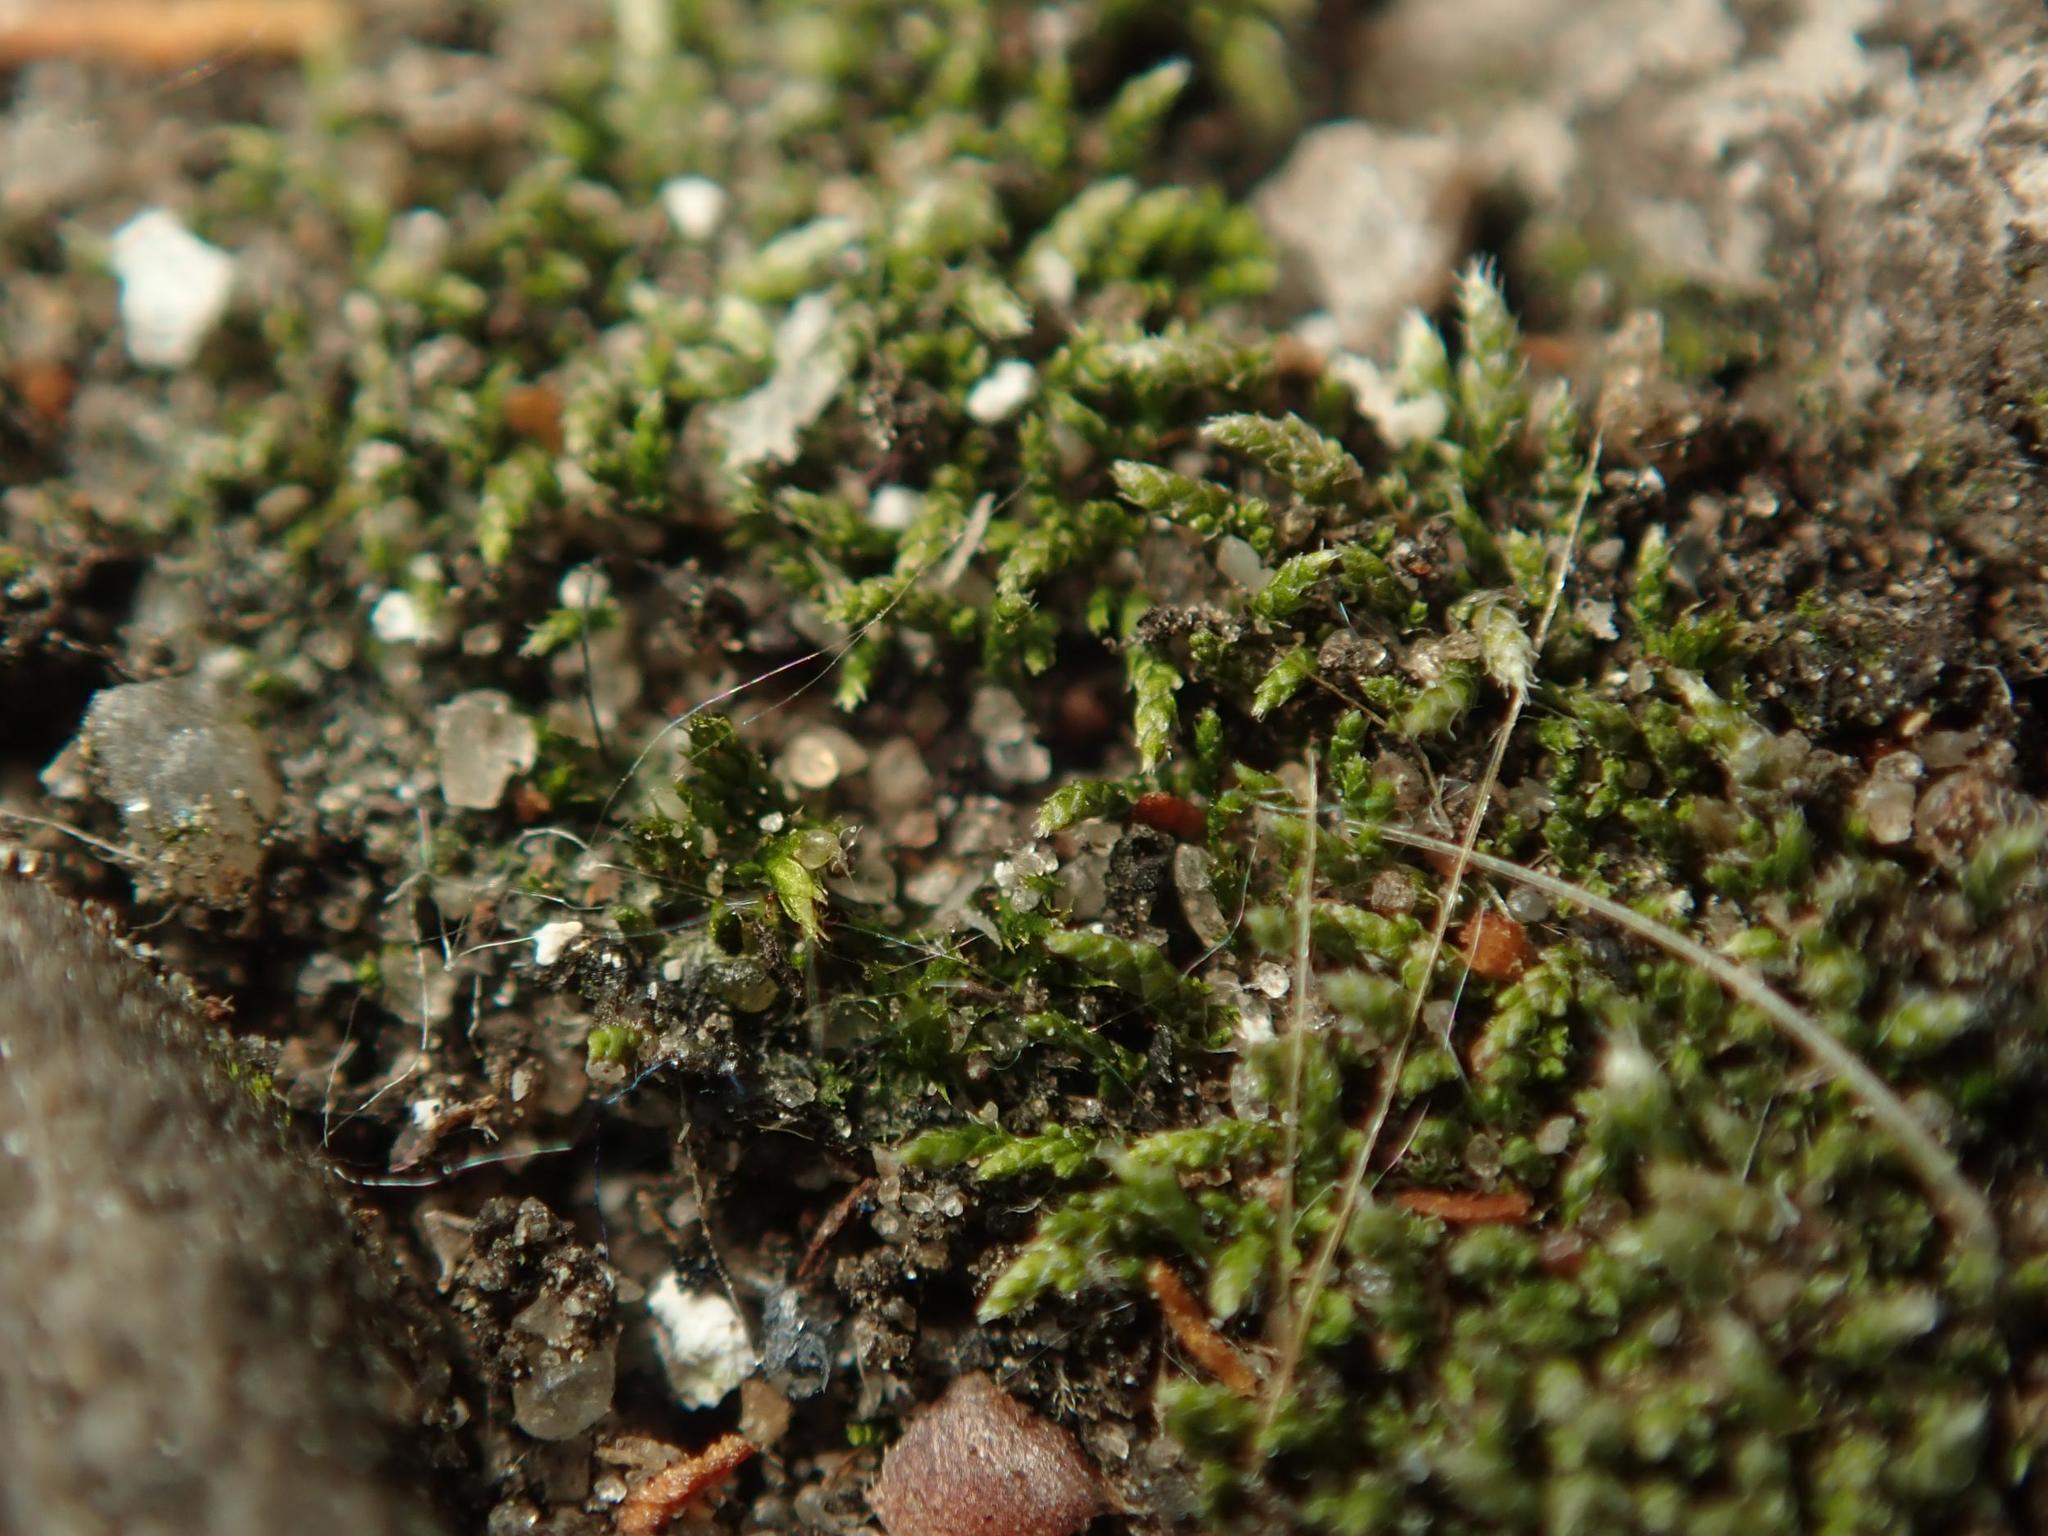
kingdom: Plantae
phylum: Bryophyta
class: Bryopsida
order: Bryales
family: Bryaceae
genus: Bryum
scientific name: Bryum argenteum
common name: Silver-moss
